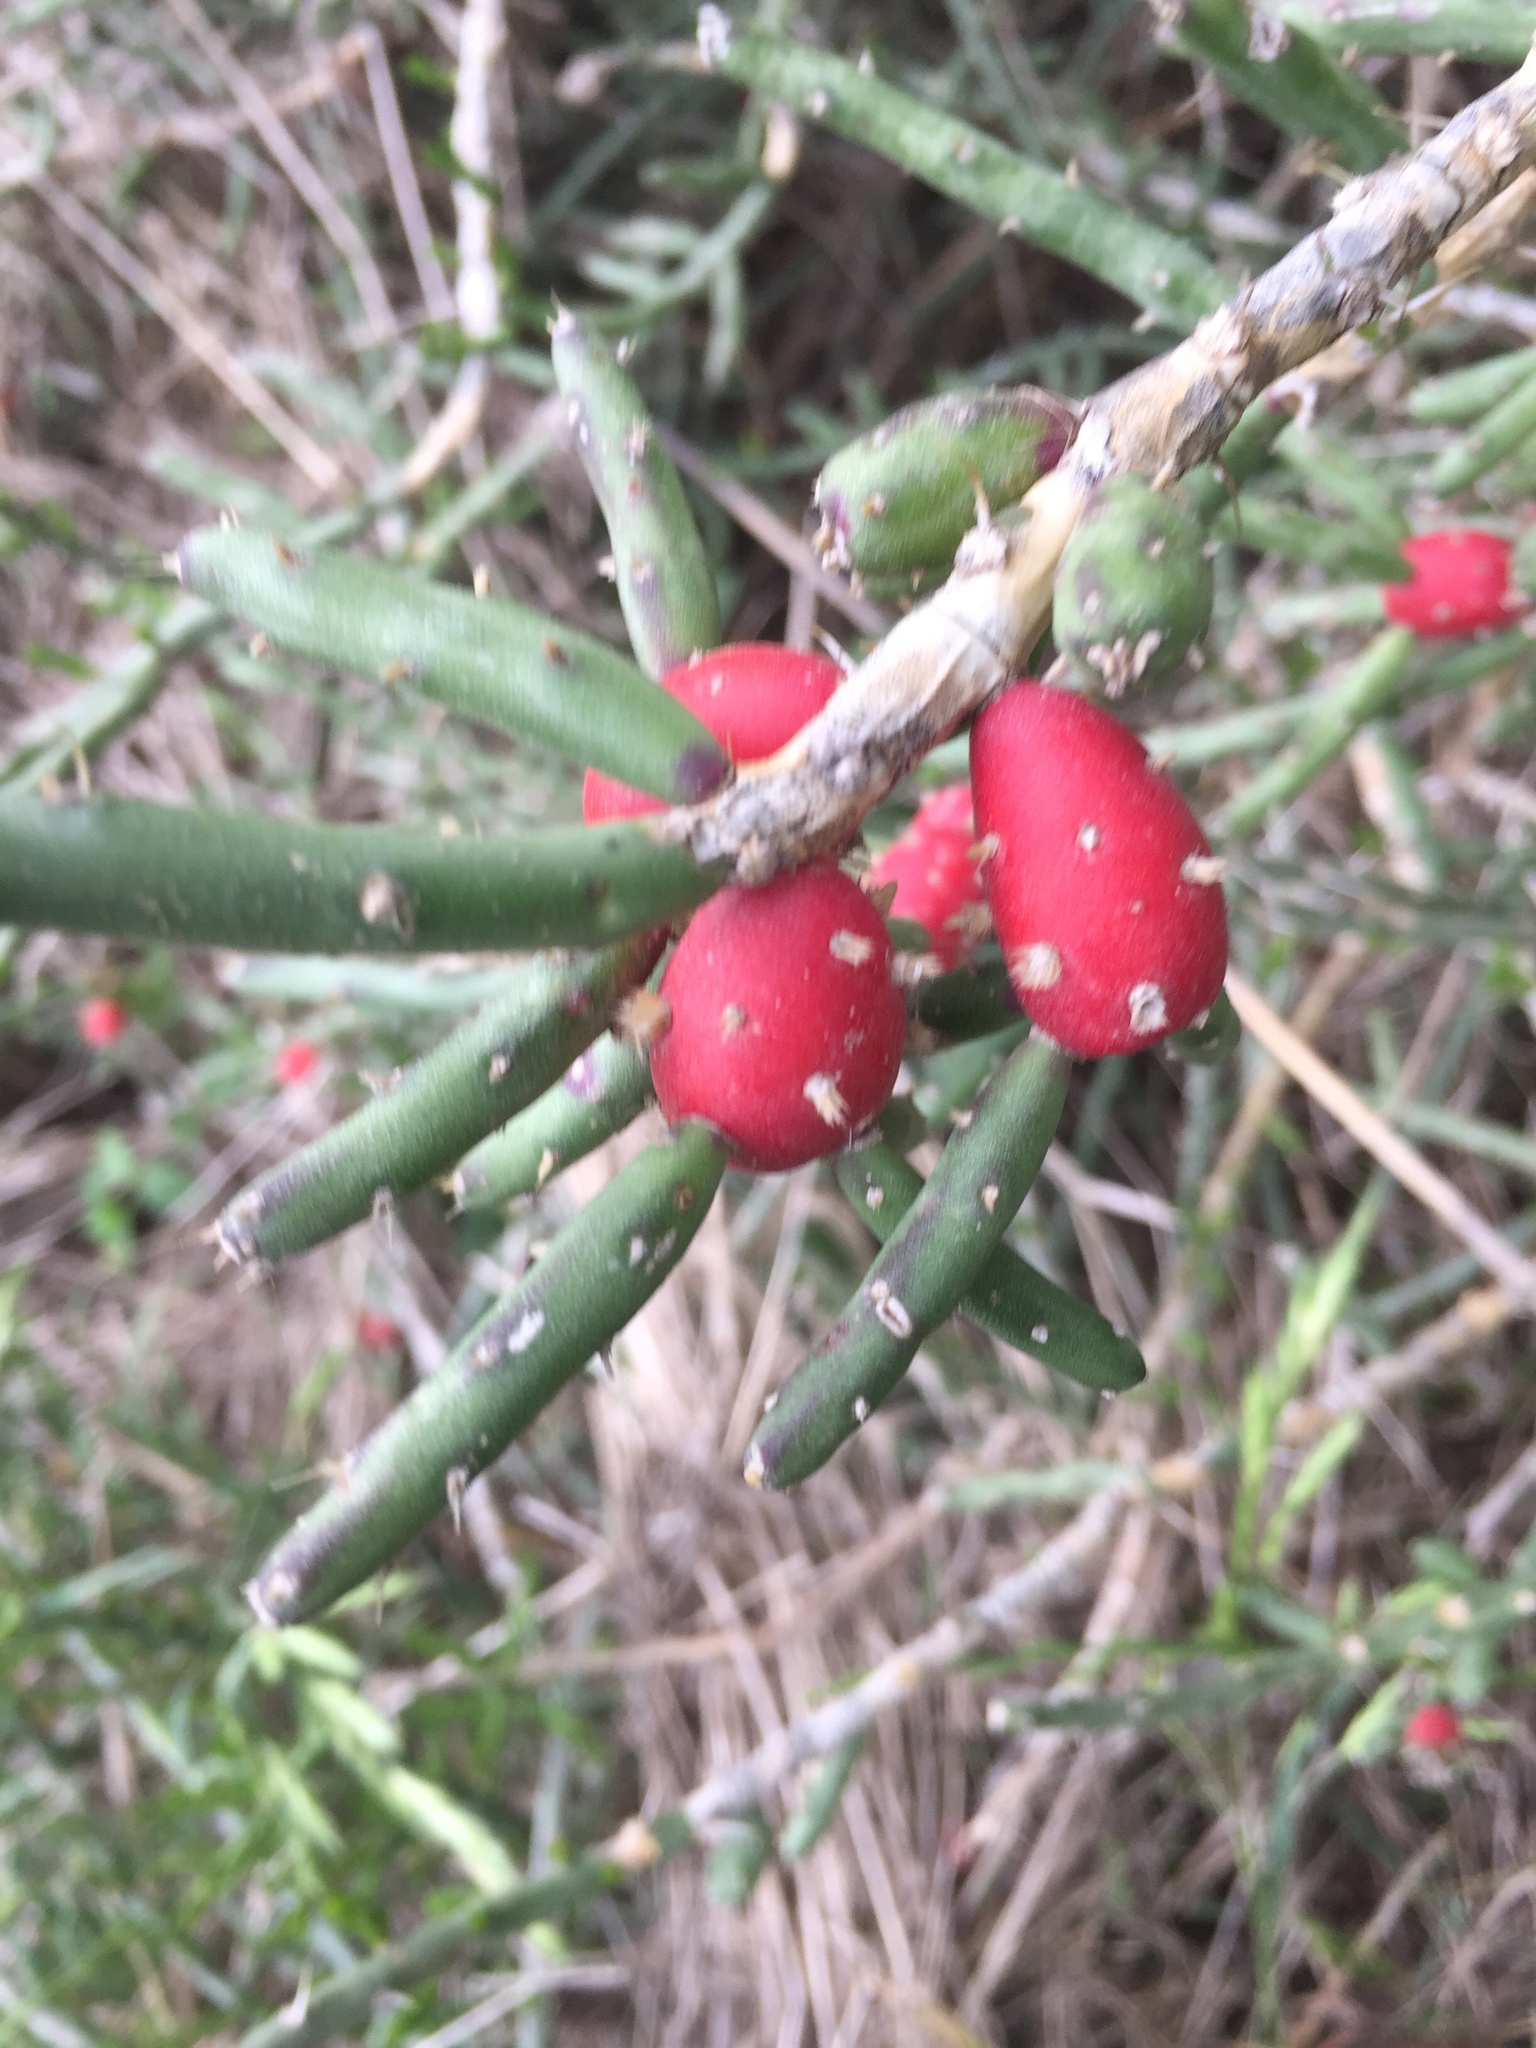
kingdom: Plantae
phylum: Tracheophyta
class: Magnoliopsida
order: Caryophyllales
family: Cactaceae
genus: Cylindropuntia
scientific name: Cylindropuntia leptocaulis
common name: Christmas cactus
